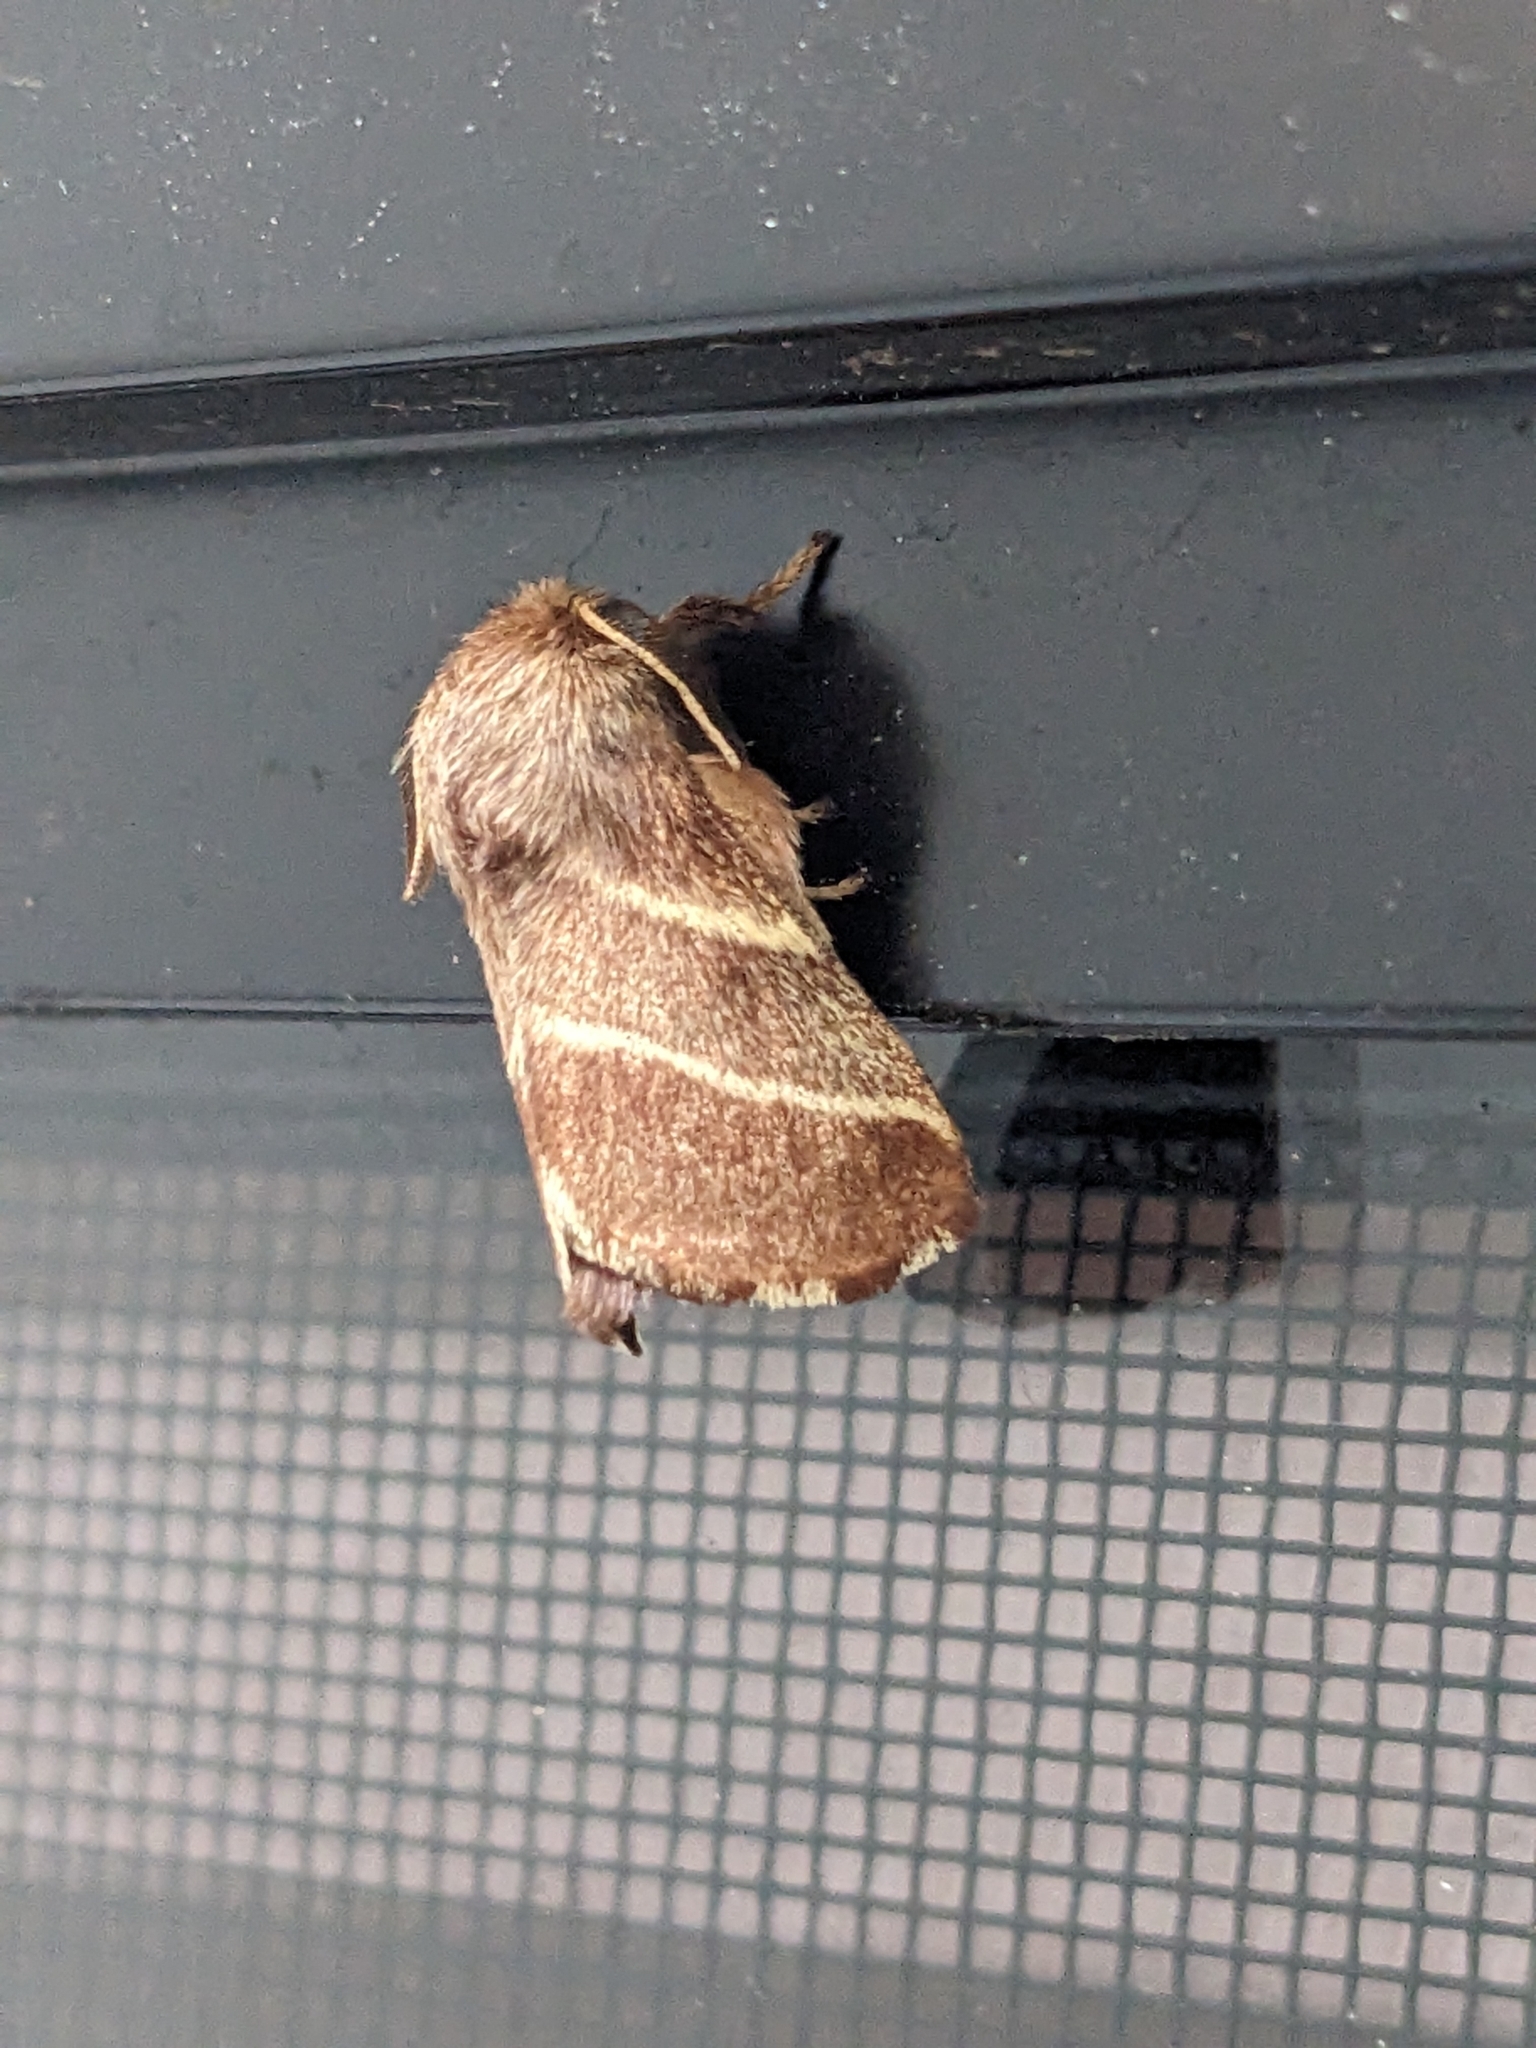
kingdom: Animalia
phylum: Arthropoda
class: Insecta
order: Lepidoptera
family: Lasiocampidae
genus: Malacosoma
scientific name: Malacosoma americana
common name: Eastern tent caterpillar moth
